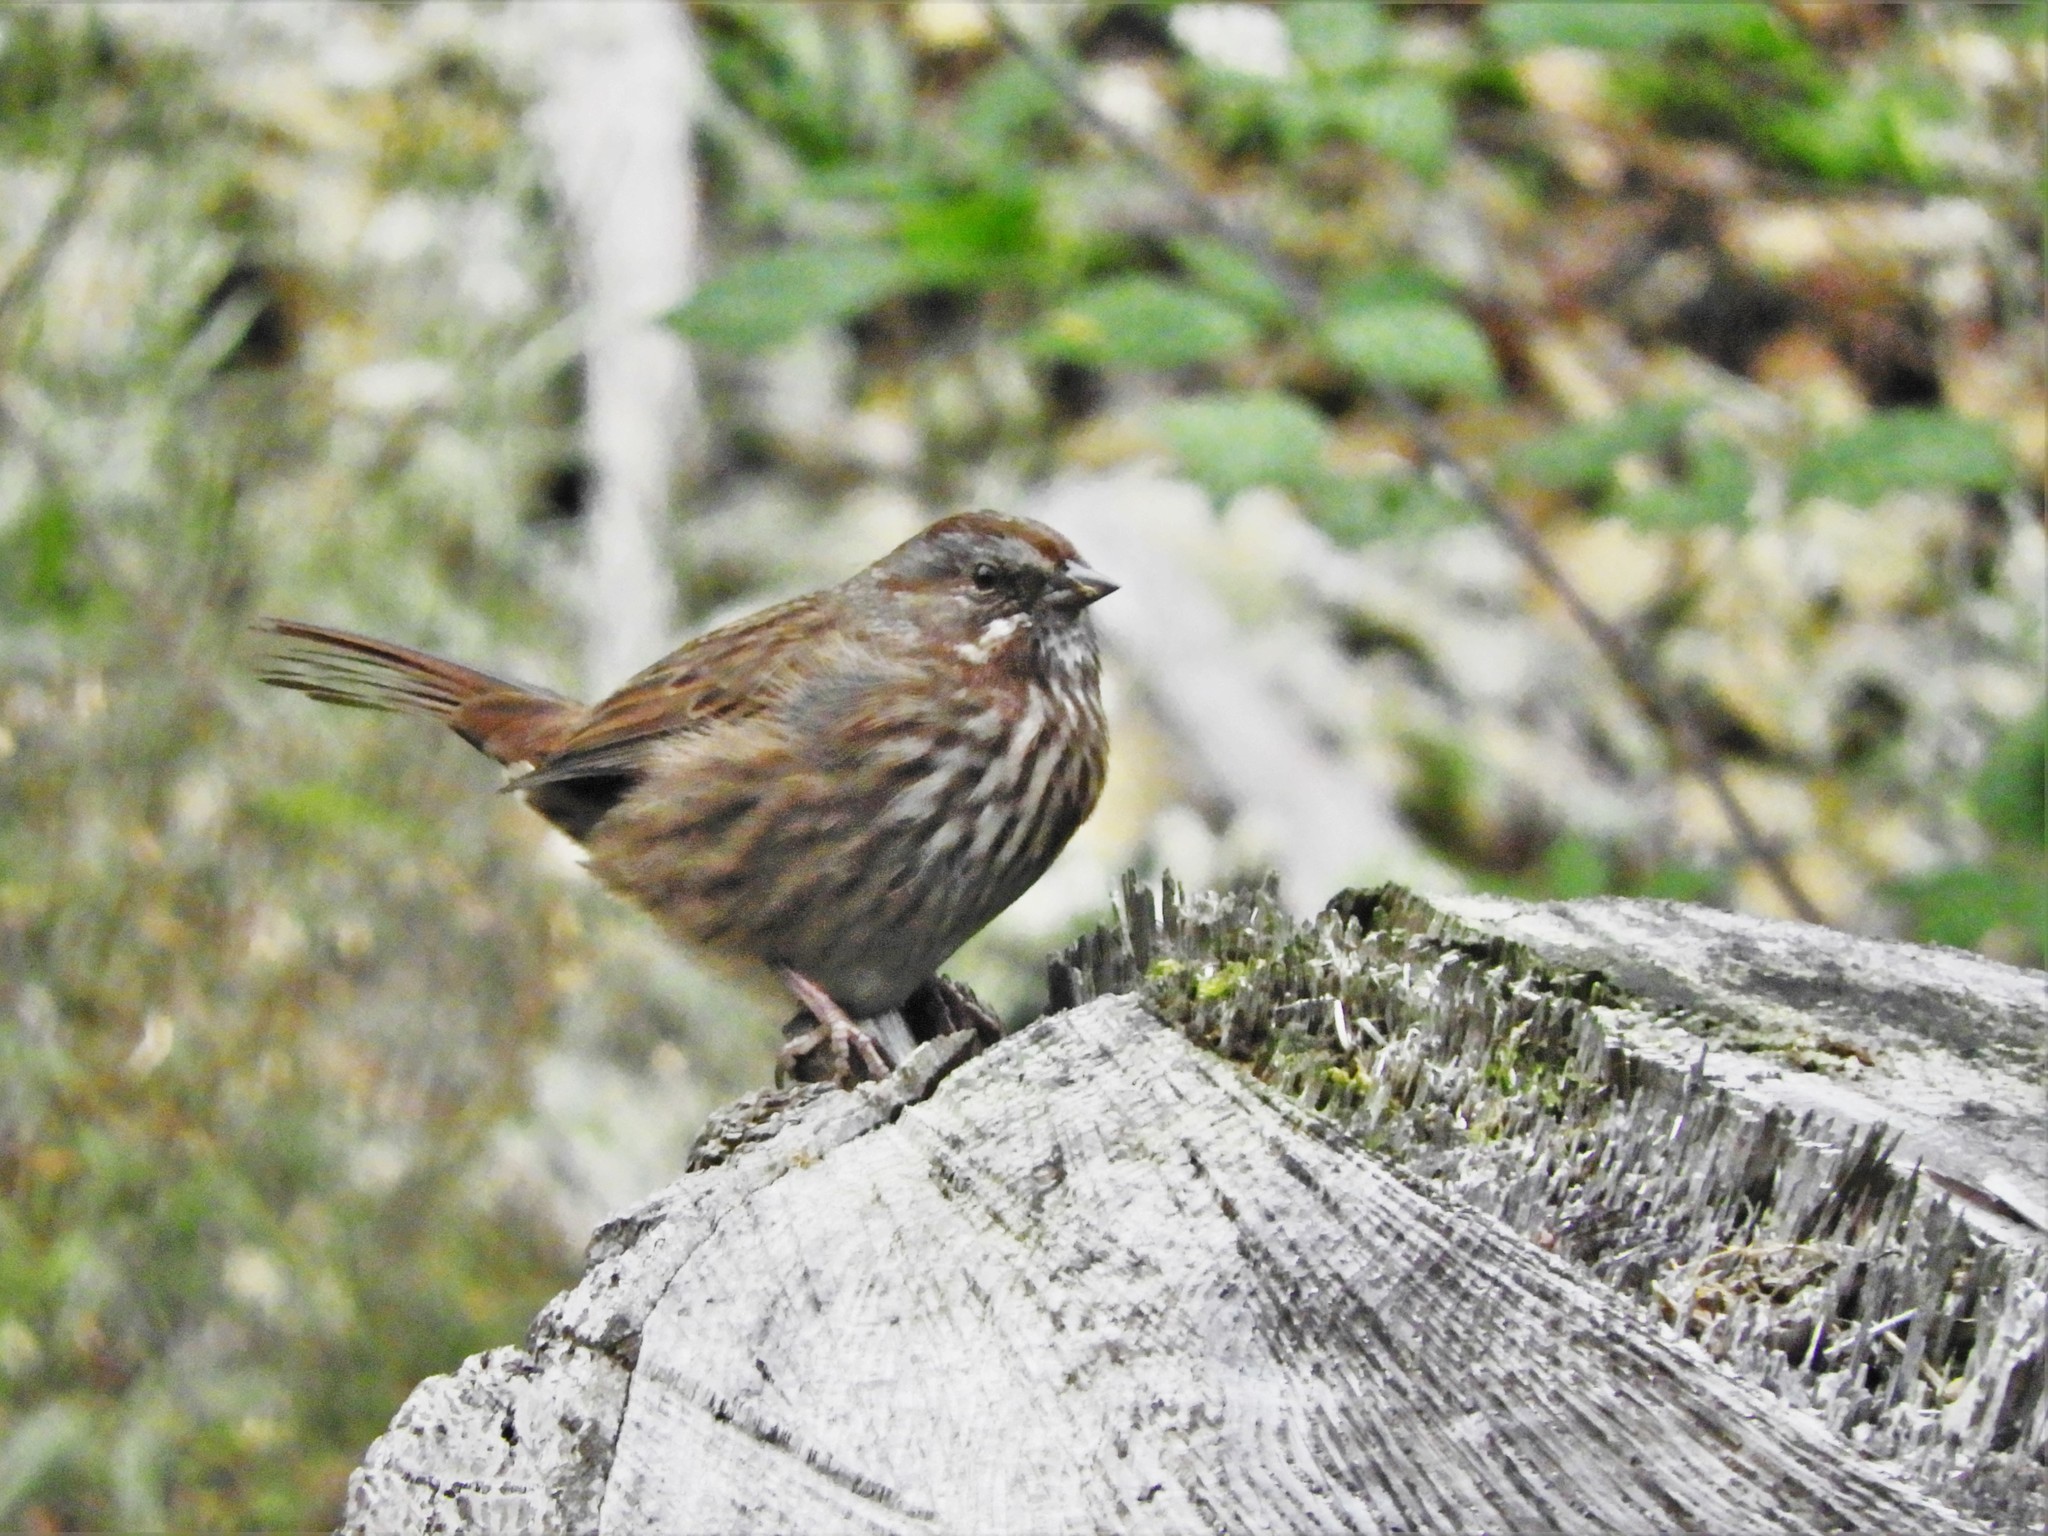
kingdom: Animalia
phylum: Chordata
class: Aves
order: Passeriformes
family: Passerellidae
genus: Melospiza
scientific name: Melospiza melodia
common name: Song sparrow
